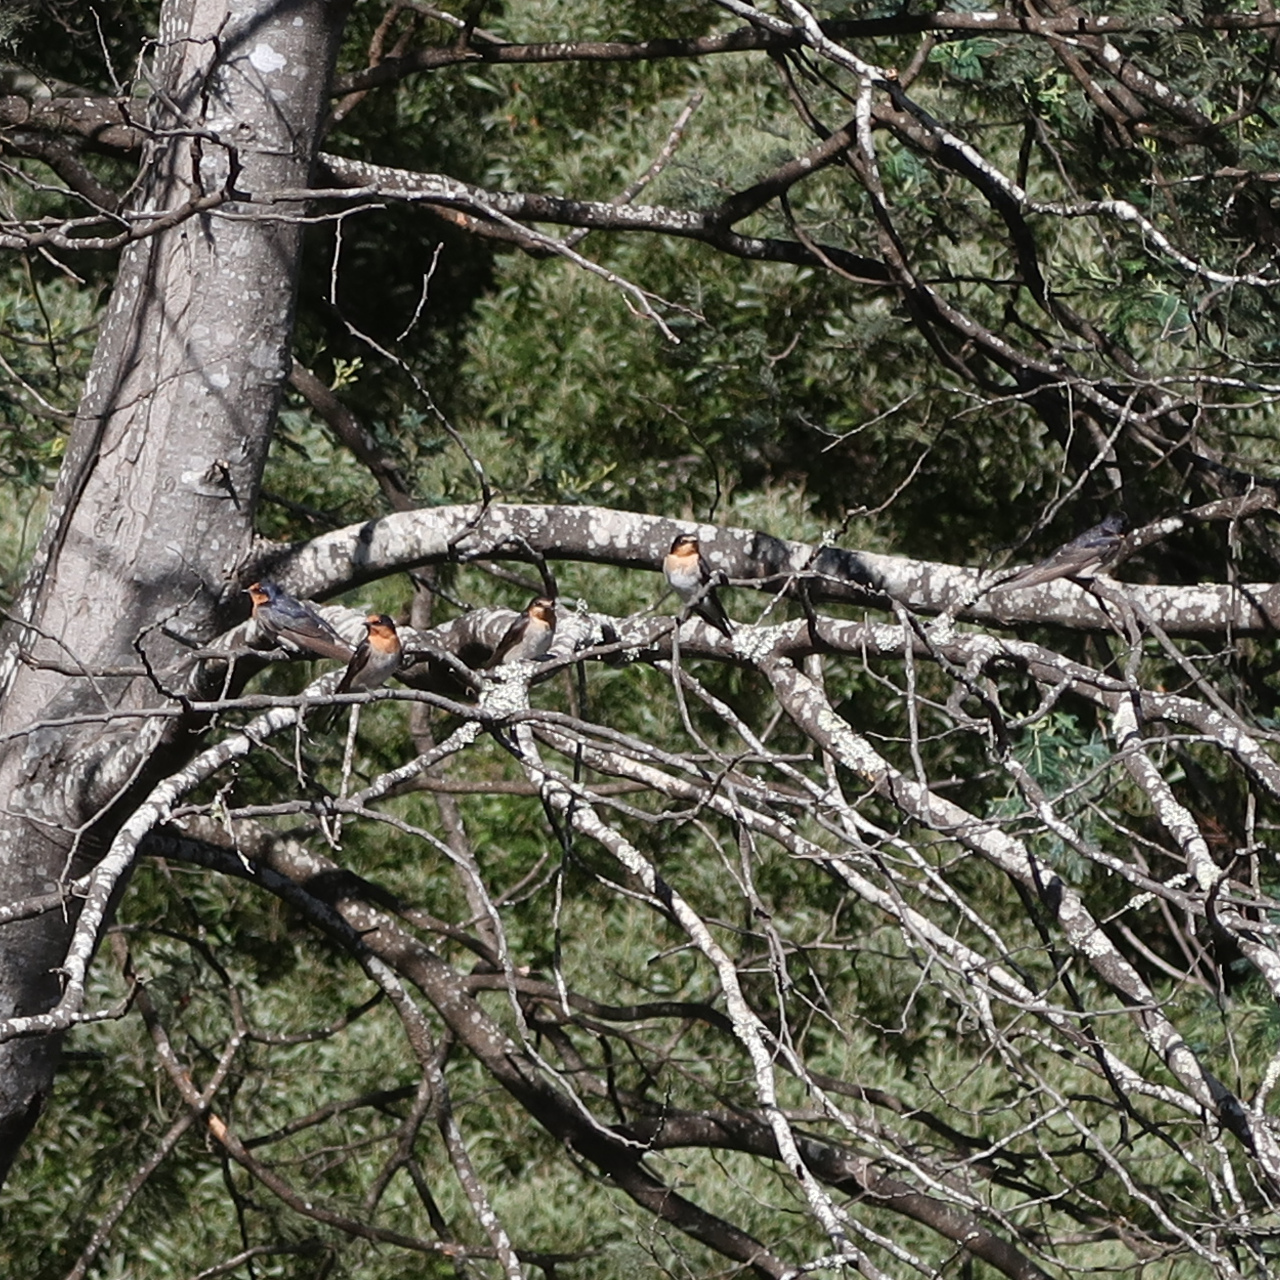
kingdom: Animalia
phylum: Chordata
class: Aves
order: Passeriformes
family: Hirundinidae
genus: Hirundo
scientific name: Hirundo neoxena
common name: Welcome swallow
